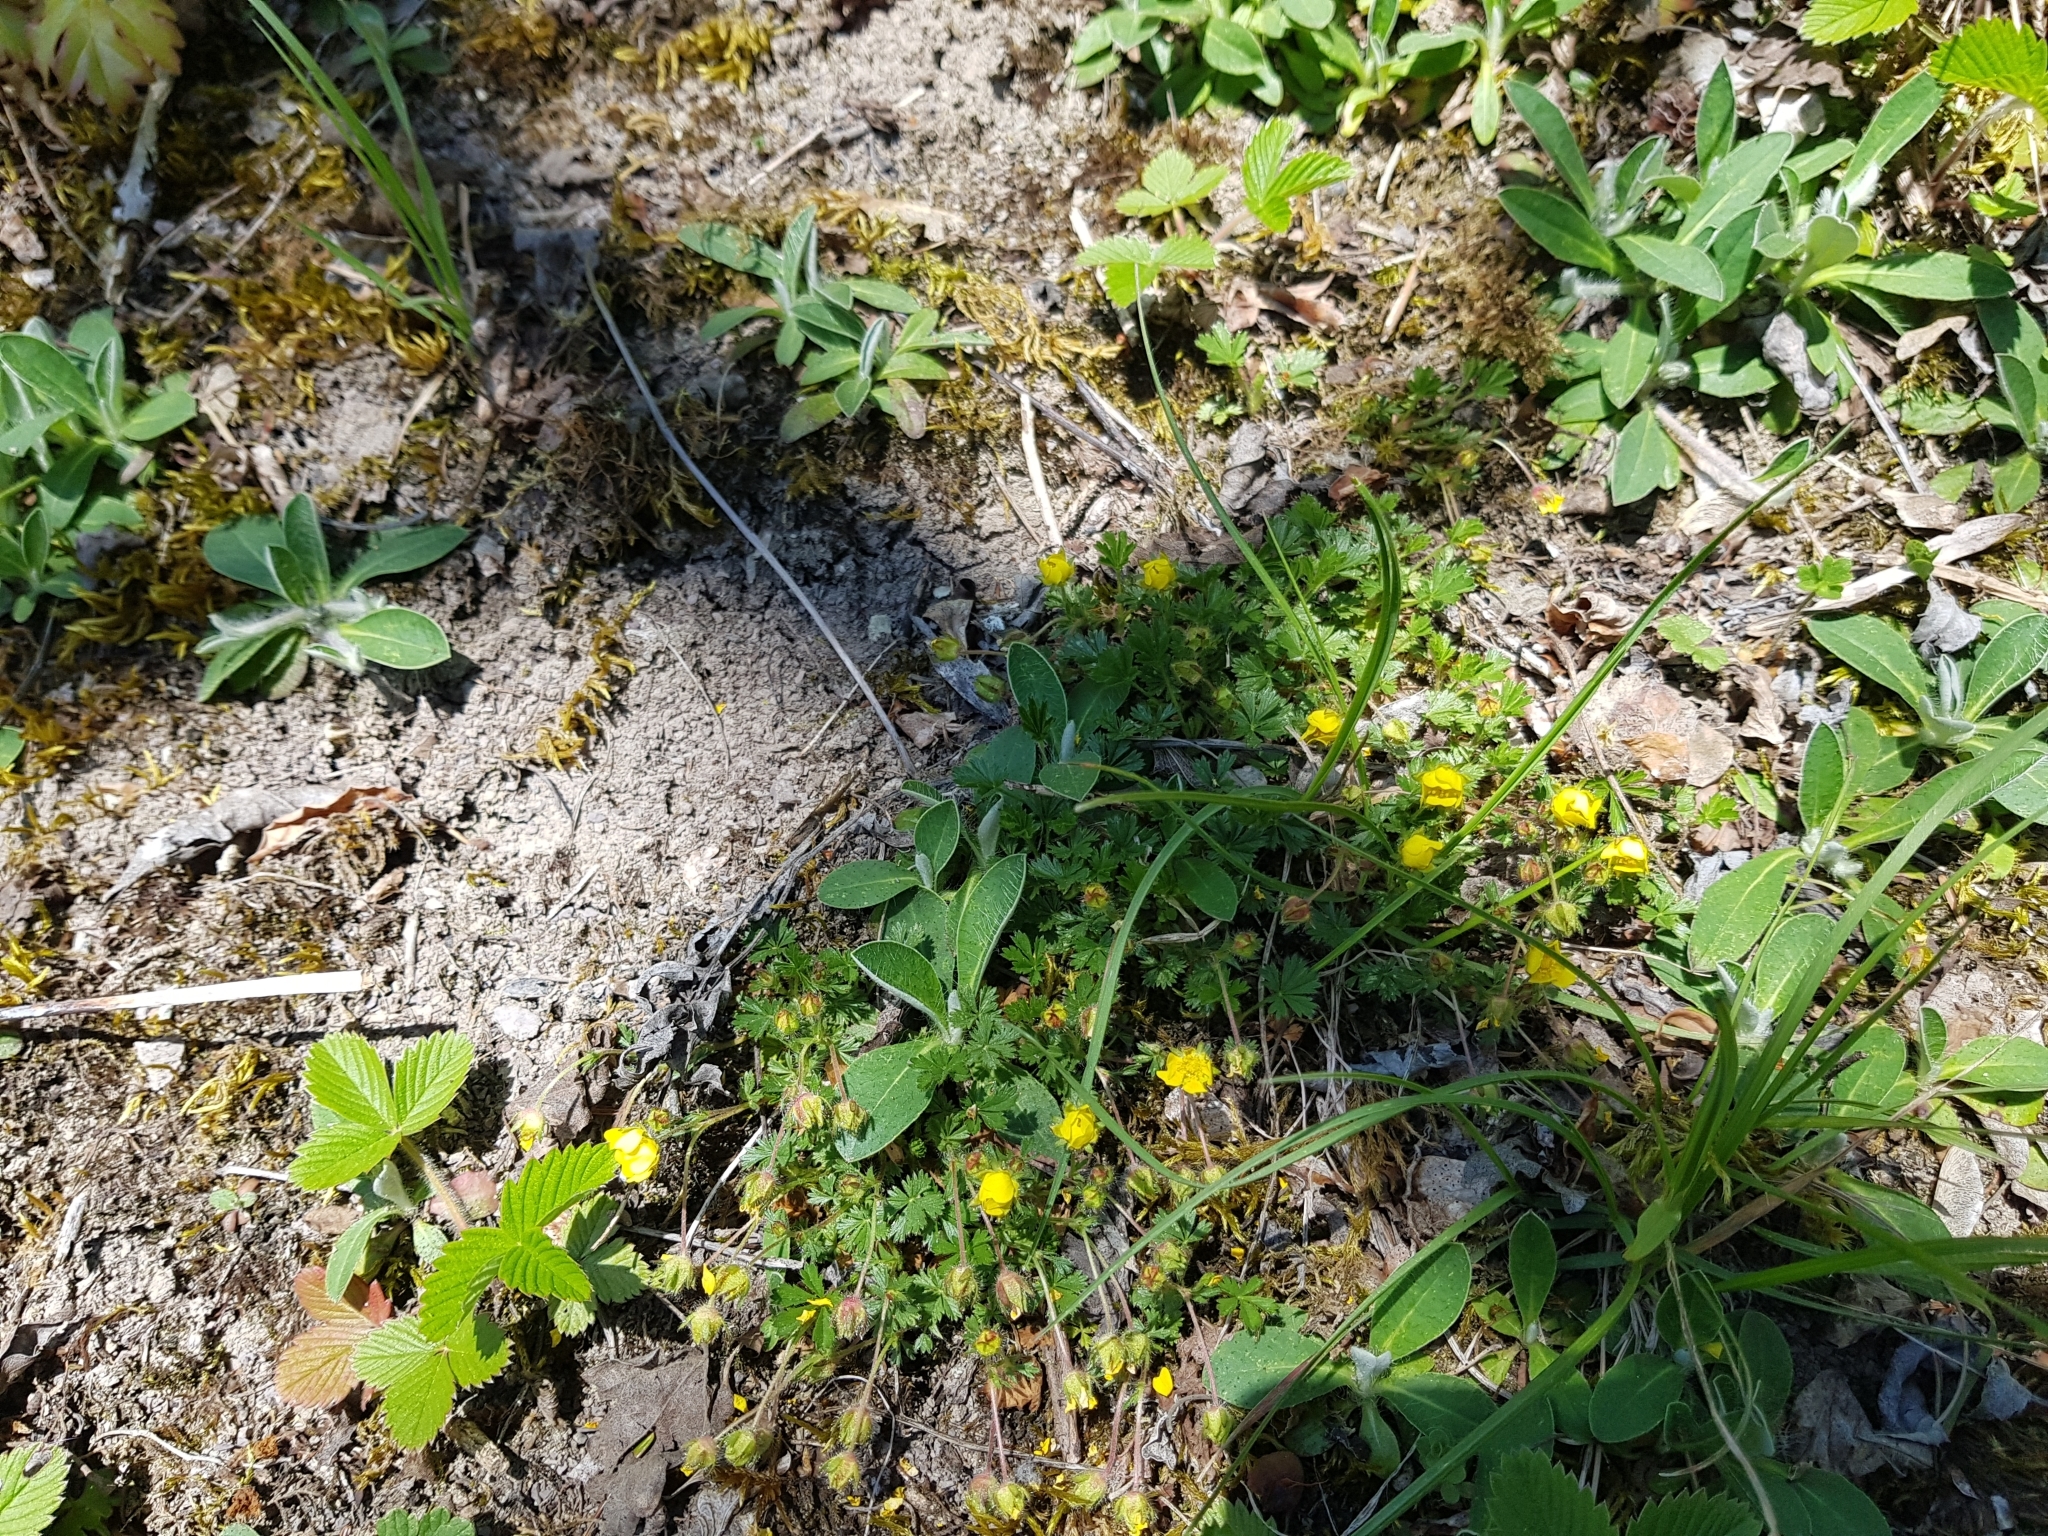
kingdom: Plantae
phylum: Tracheophyta
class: Magnoliopsida
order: Rosales
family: Rosaceae
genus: Potentilla
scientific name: Potentilla verna
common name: Spring cinquefoil
